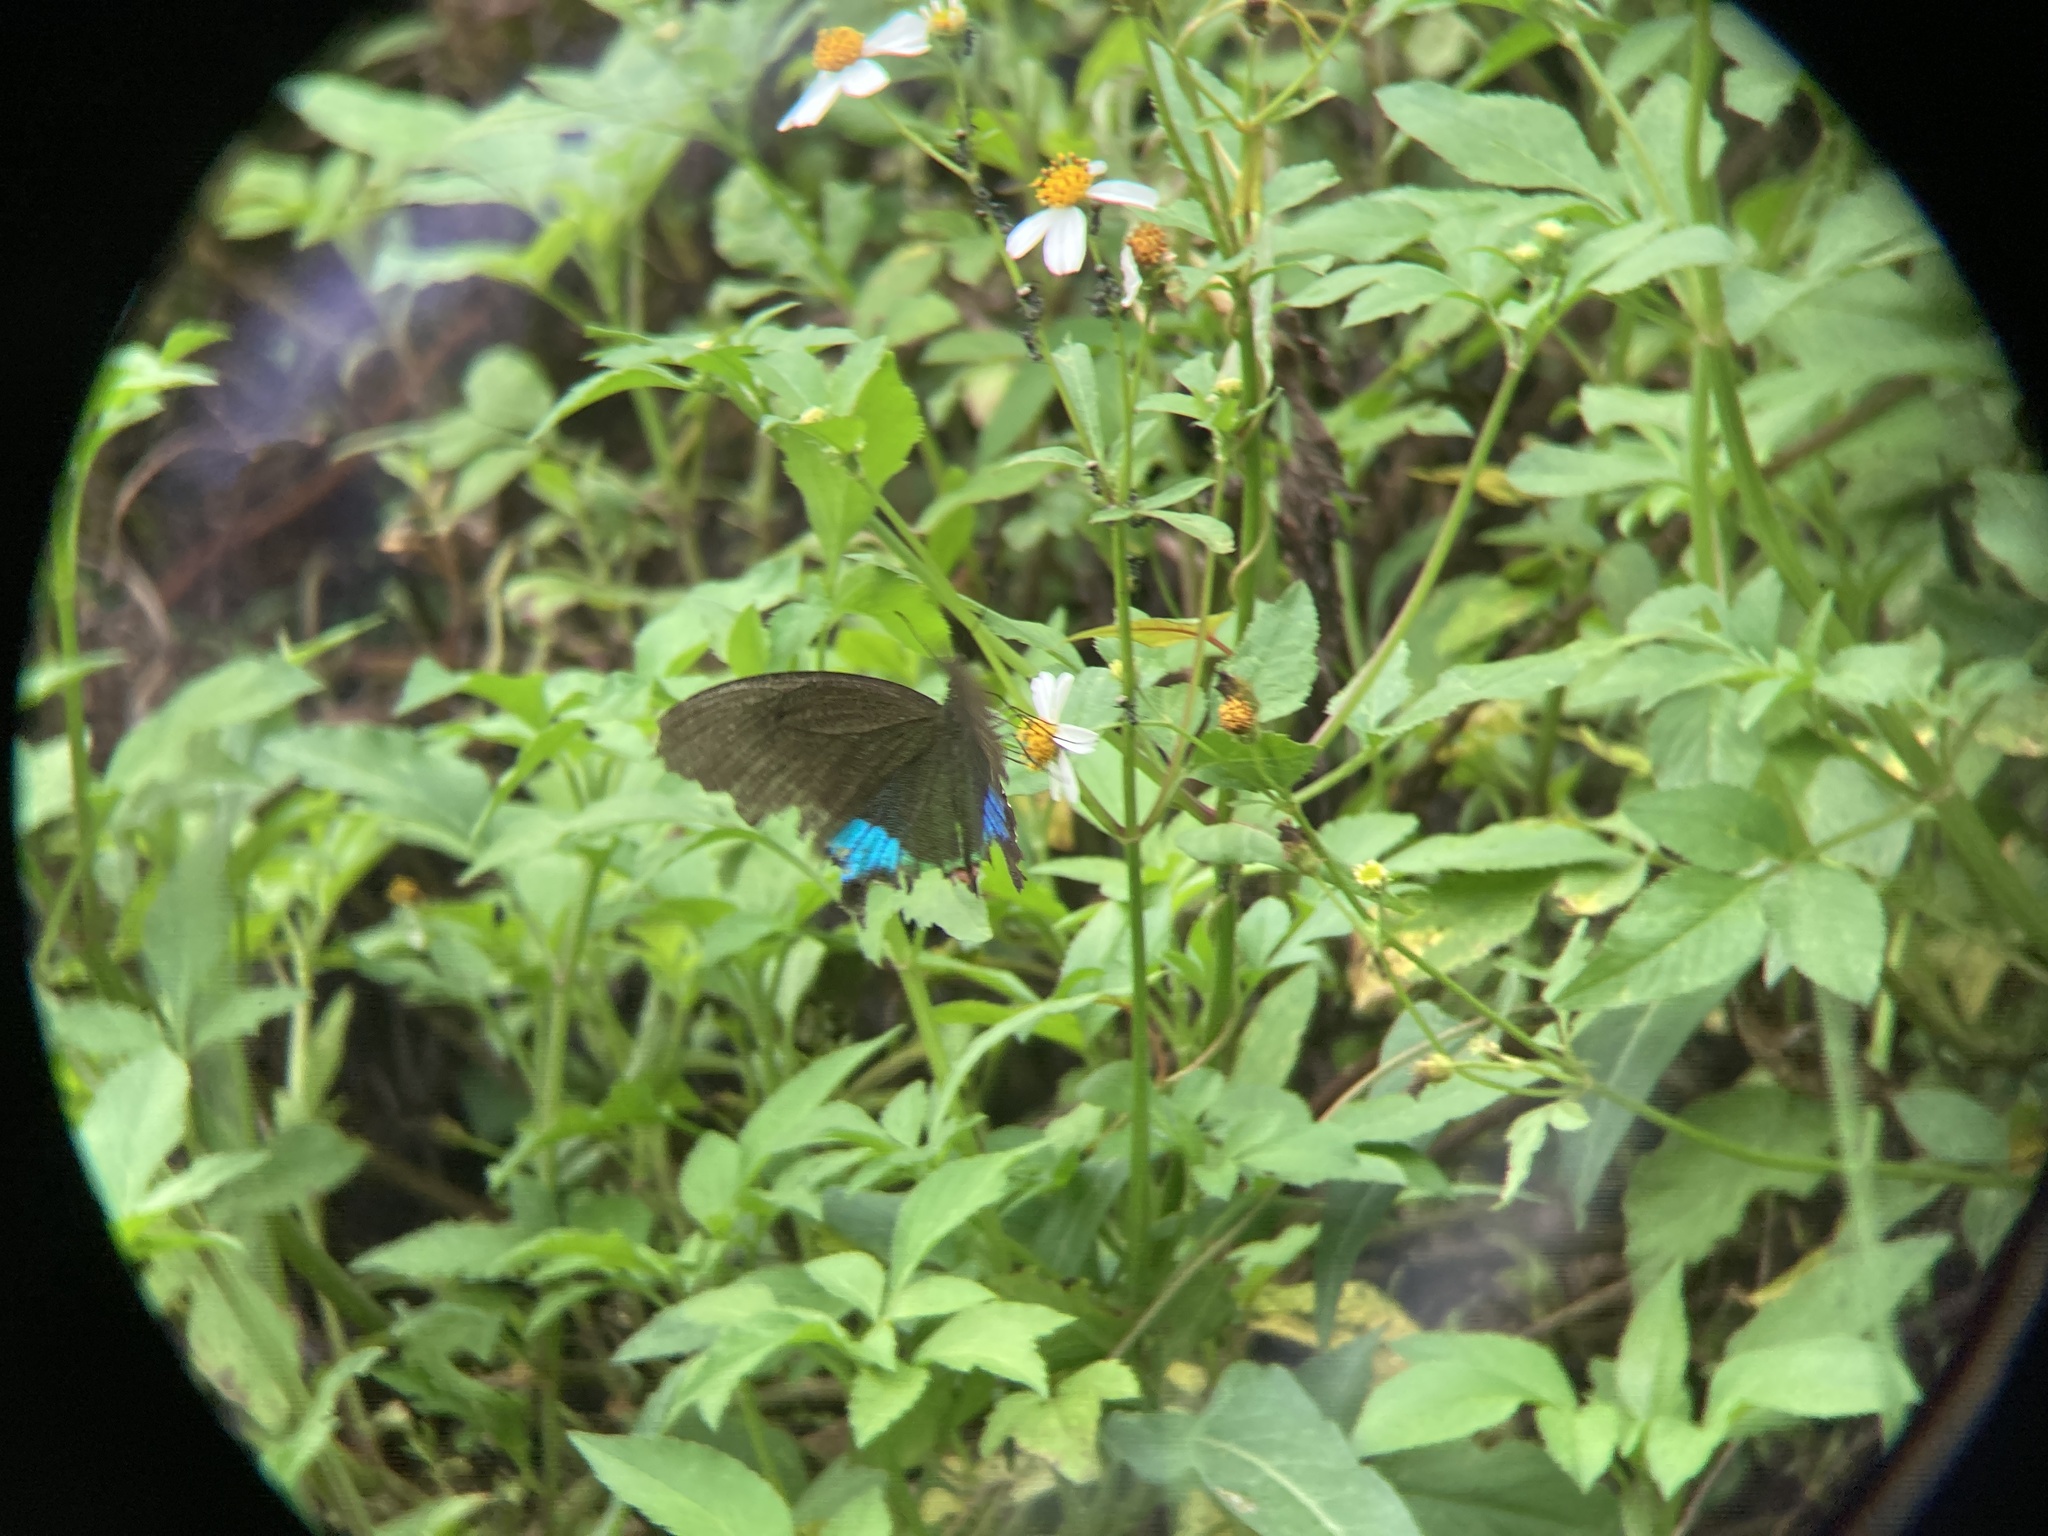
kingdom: Animalia
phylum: Arthropoda
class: Insecta
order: Lepidoptera
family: Papilionidae
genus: Papilio
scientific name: Papilio hermosanus
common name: Taiwanese glazed swallowtail
